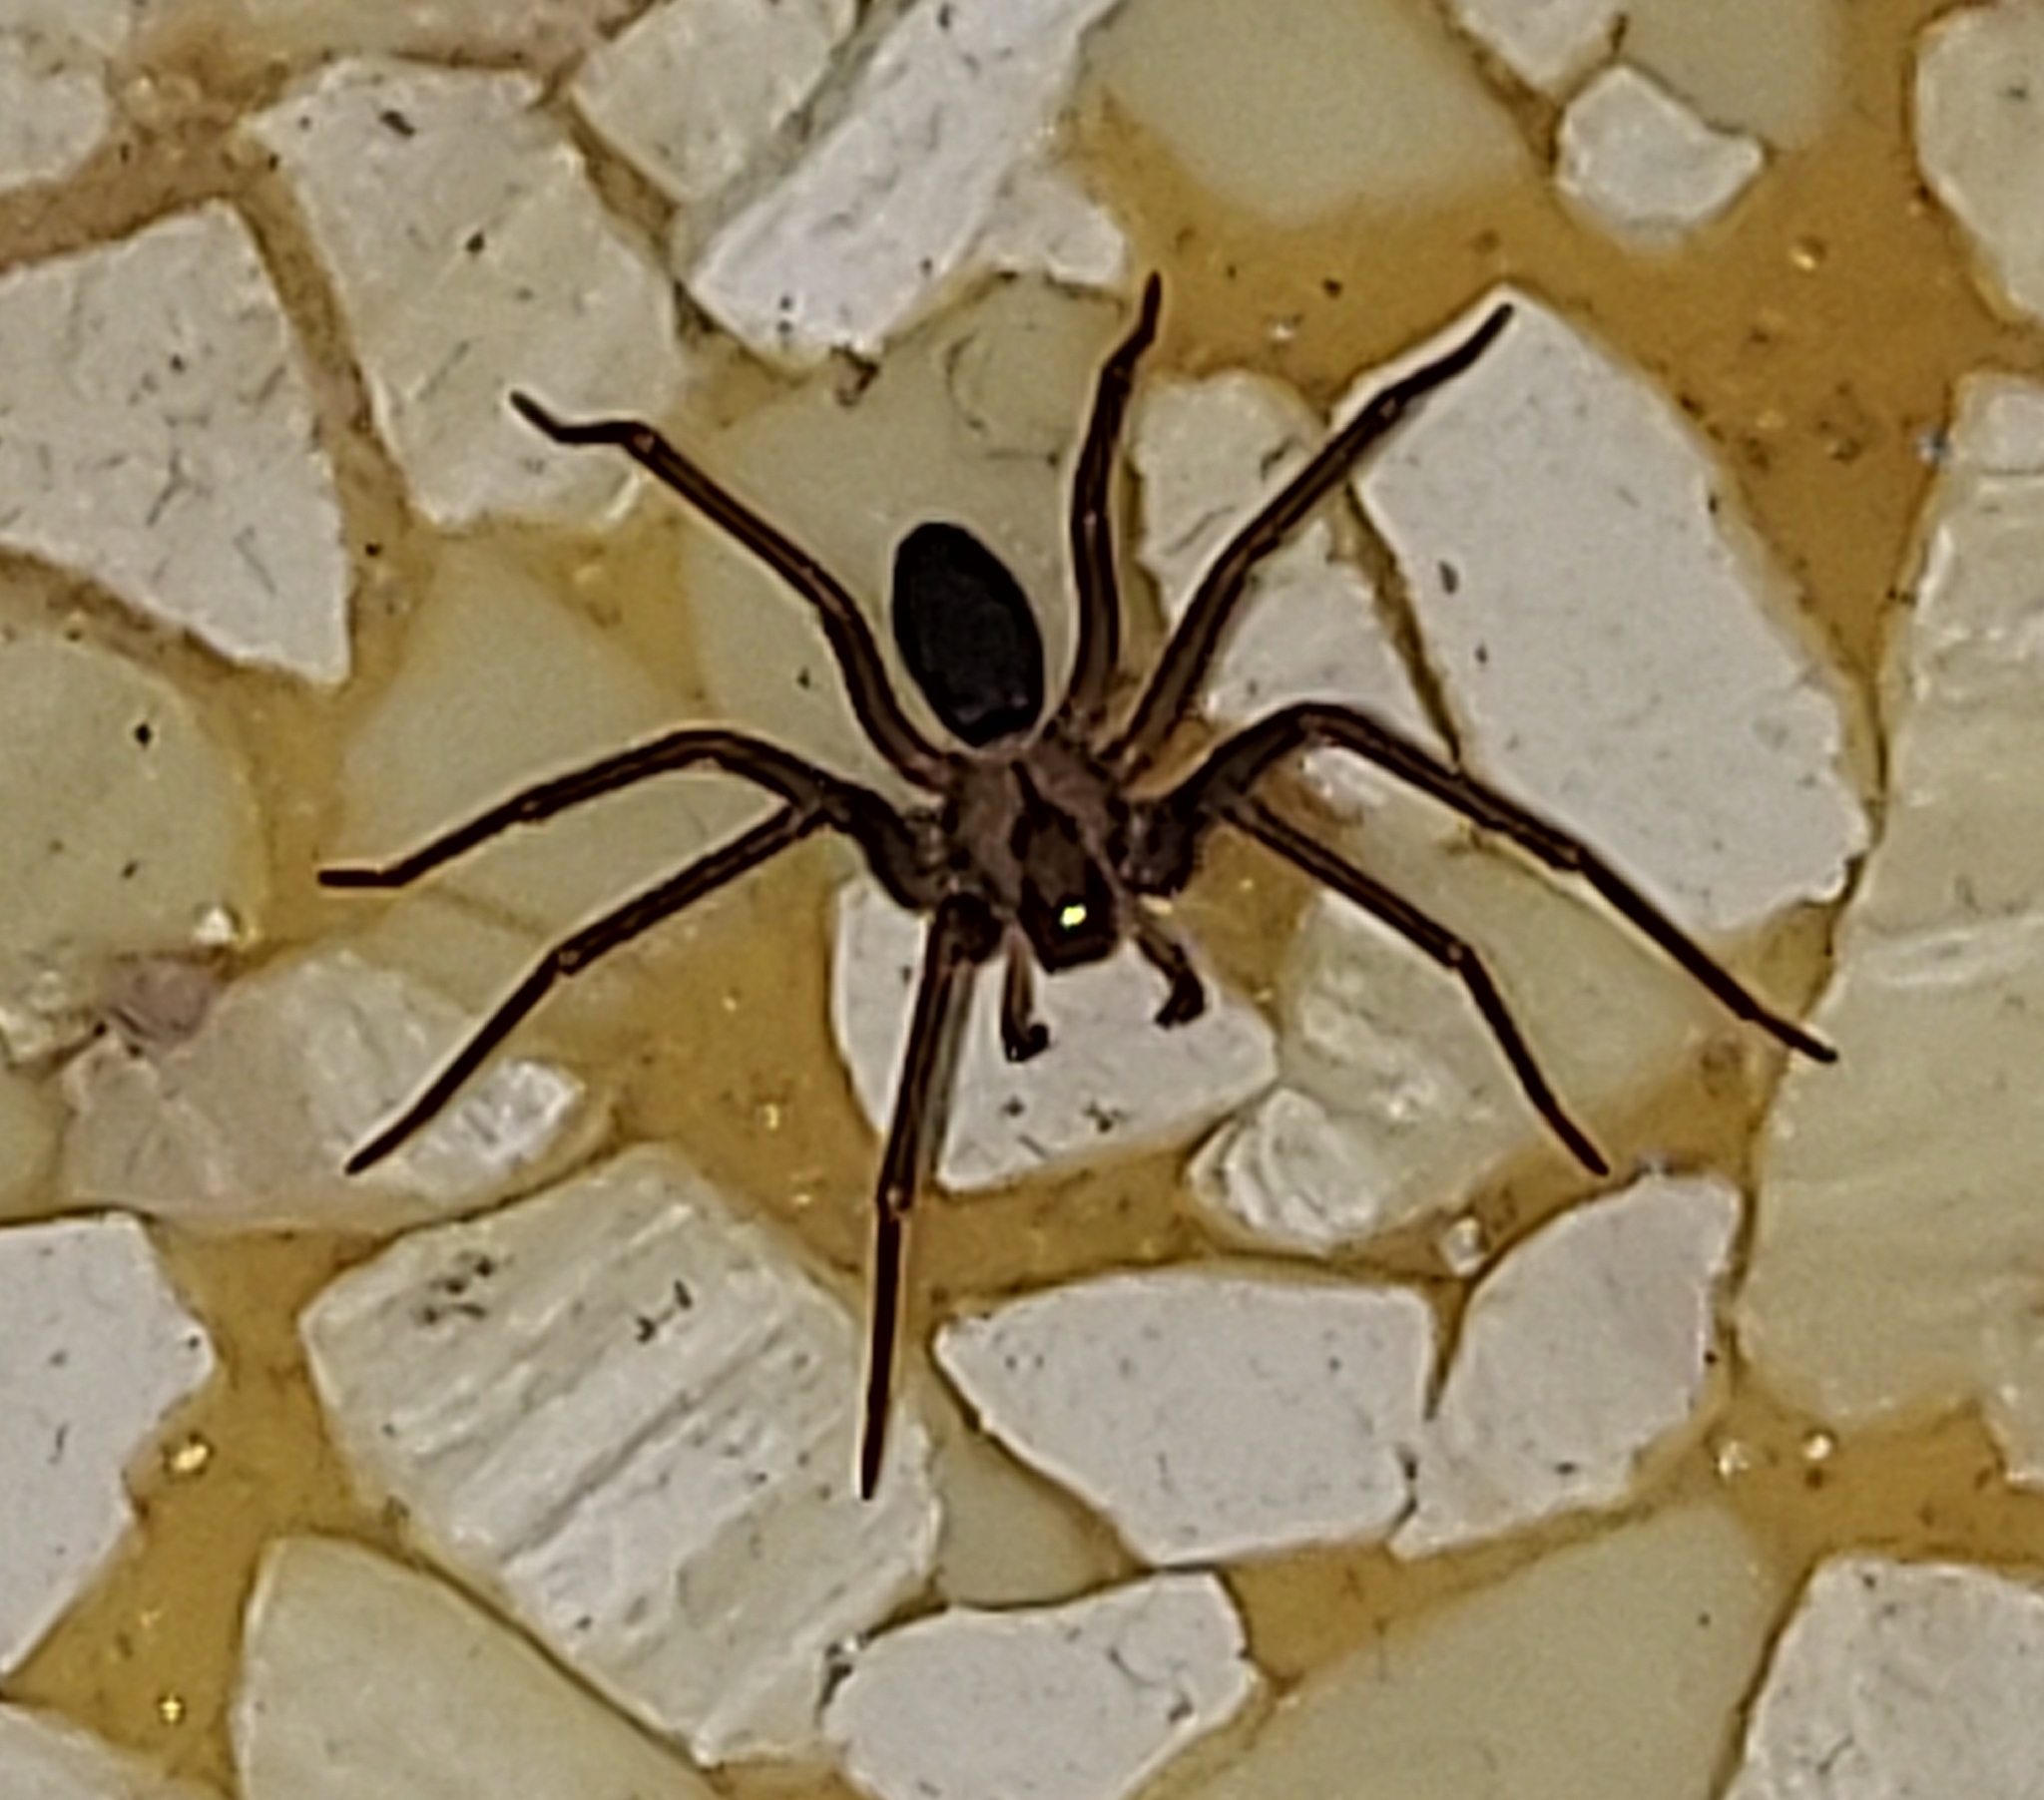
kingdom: Animalia
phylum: Arthropoda
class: Arachnida
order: Araneae
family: Sicariidae
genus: Loxosceles
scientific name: Loxosceles reclusa
